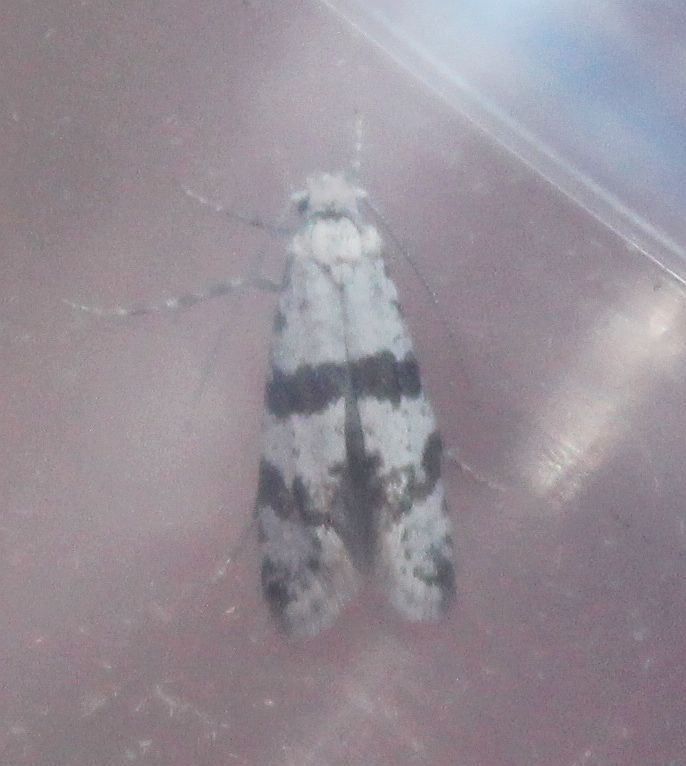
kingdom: Animalia
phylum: Arthropoda
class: Insecta
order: Lepidoptera
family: Yponomeutidae
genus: Scythropia
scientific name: Scythropia crataegella
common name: Hawthorn moth
